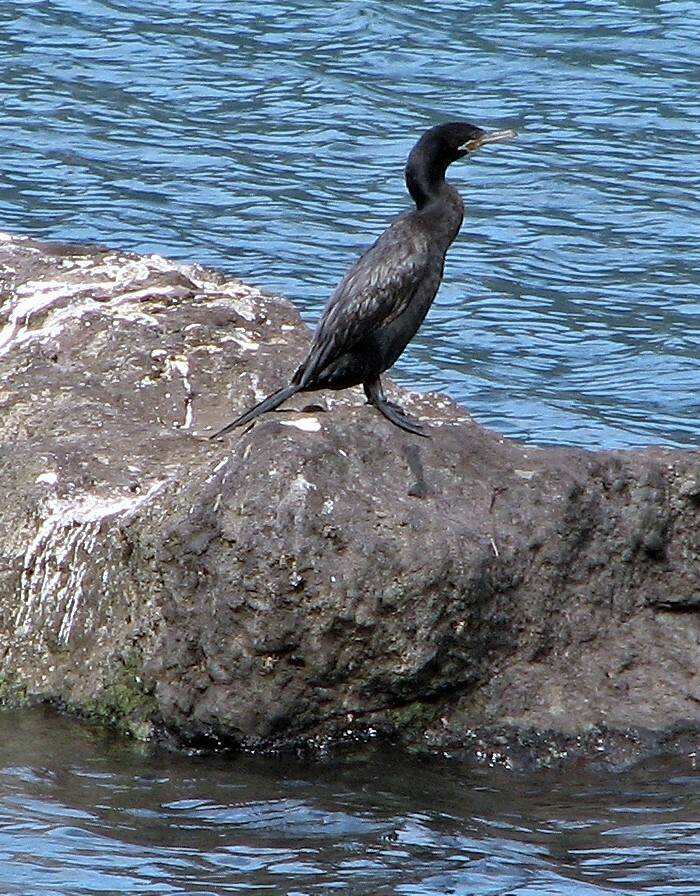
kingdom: Animalia
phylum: Chordata
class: Aves
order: Suliformes
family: Phalacrocoracidae
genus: Phalacrocorax
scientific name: Phalacrocorax brasilianus
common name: Neotropic cormorant
